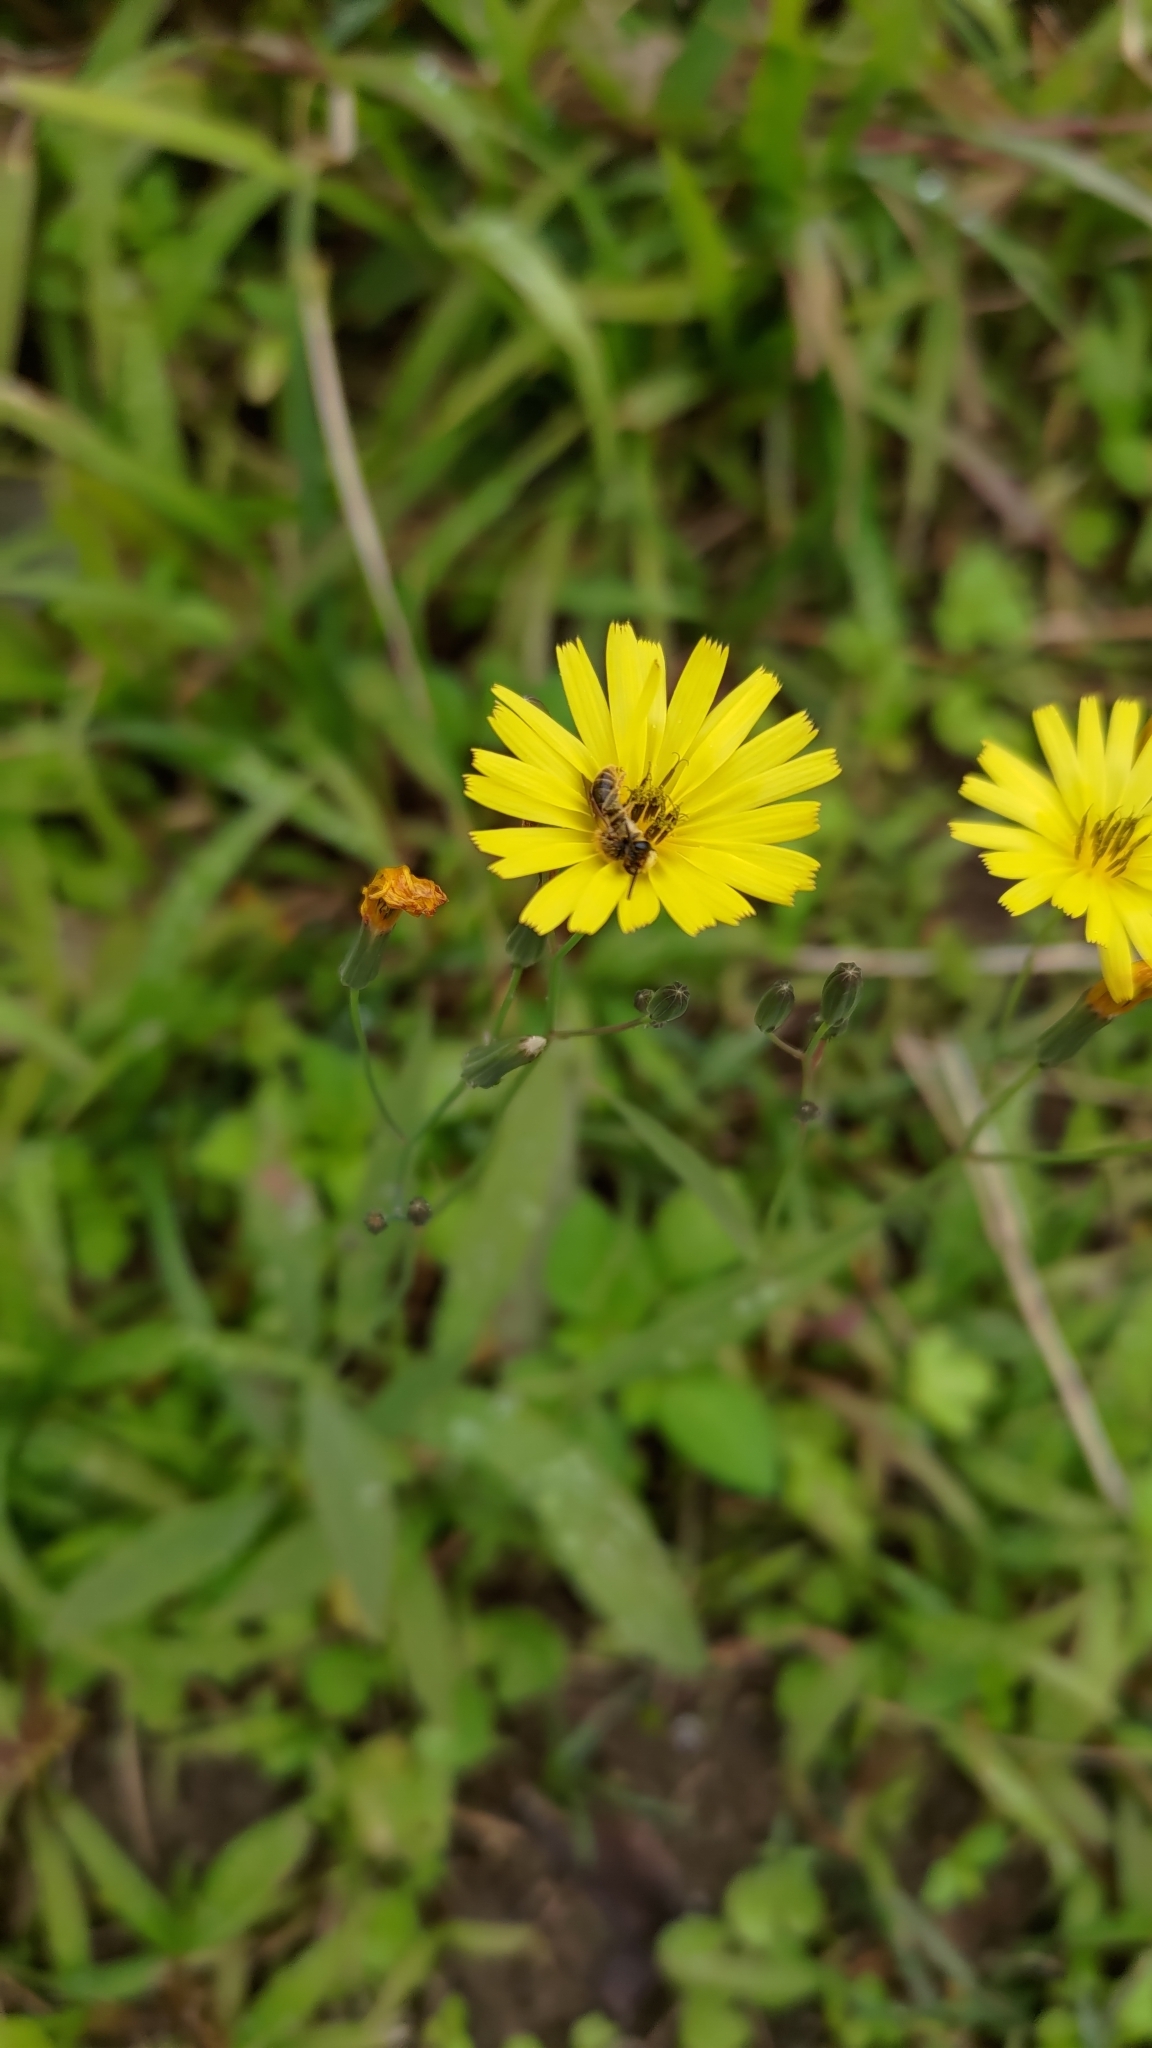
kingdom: Plantae
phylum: Tracheophyta
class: Magnoliopsida
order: Asterales
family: Asteraceae
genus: Ixeris
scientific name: Ixeris chinensis
